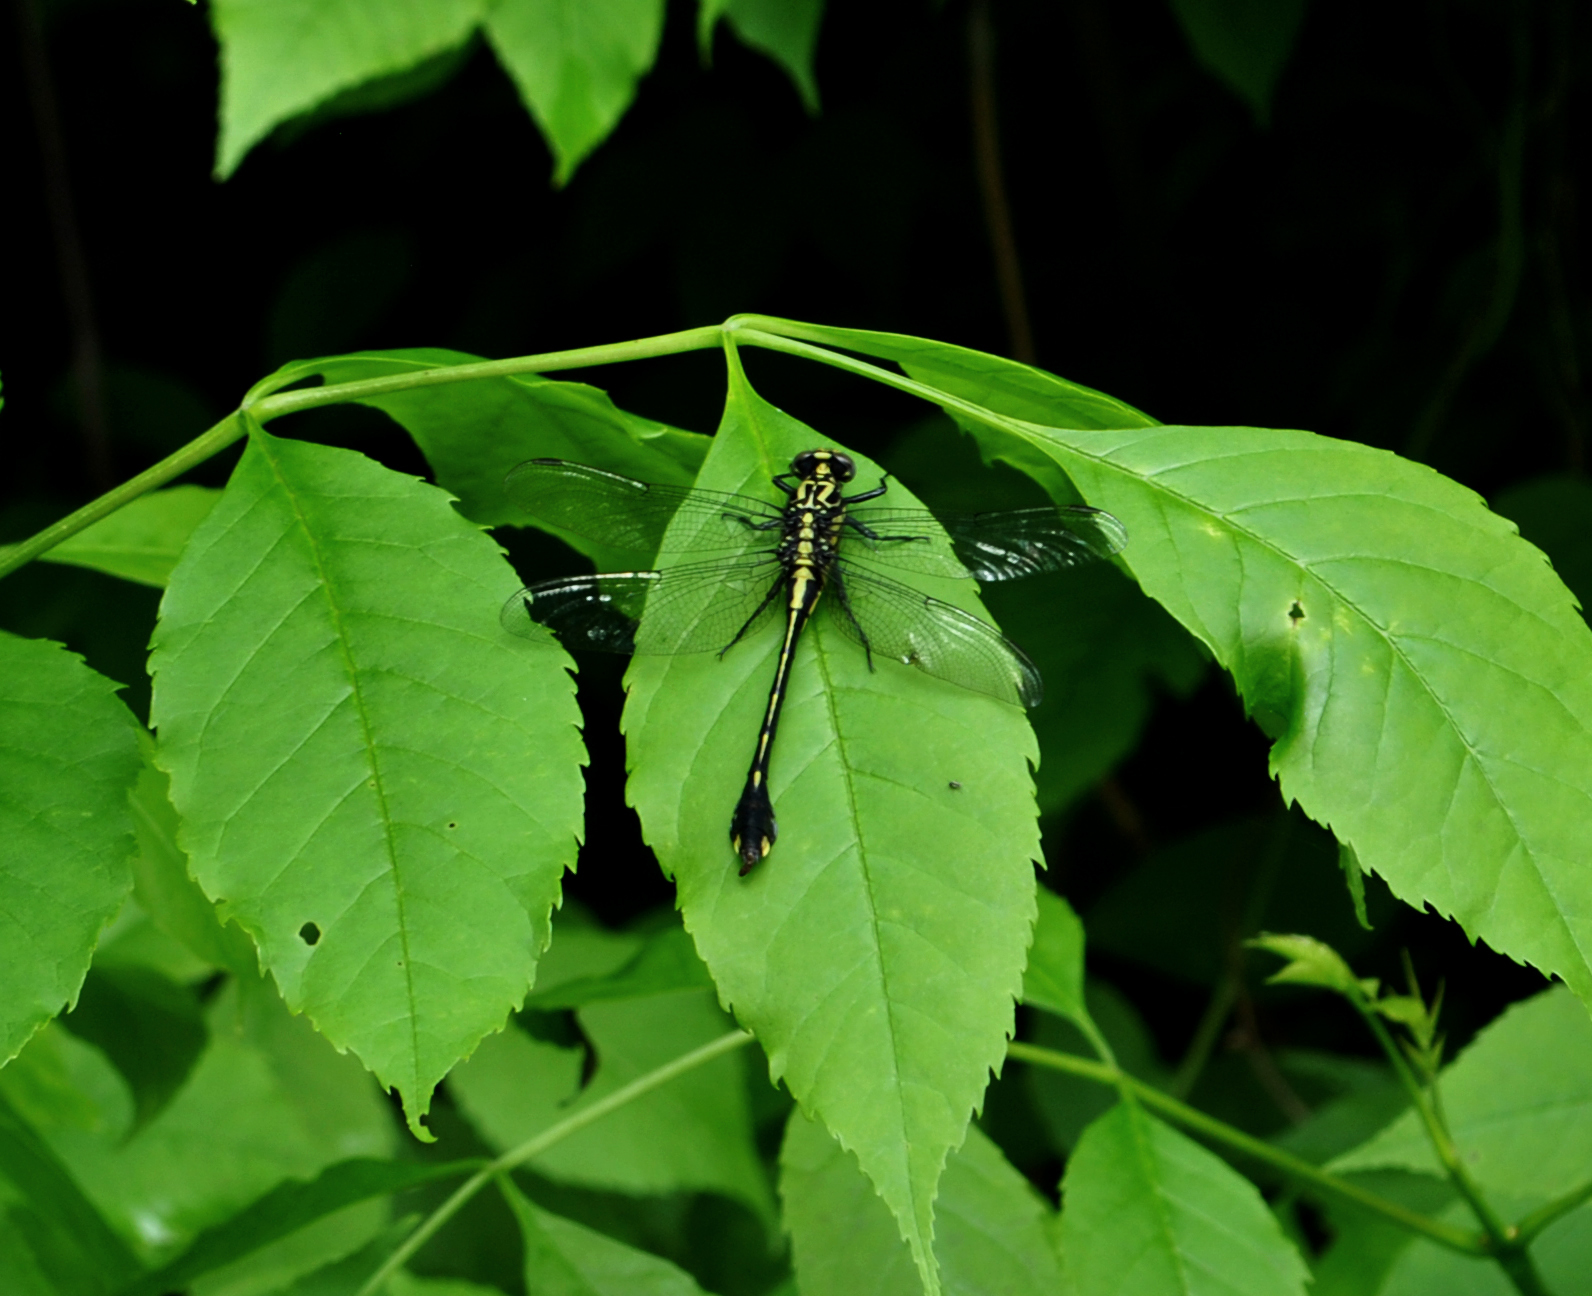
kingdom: Animalia
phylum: Arthropoda
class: Insecta
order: Odonata
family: Gomphidae
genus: Gomphurus
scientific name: Gomphurus vastus
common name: Cobra clubtail
